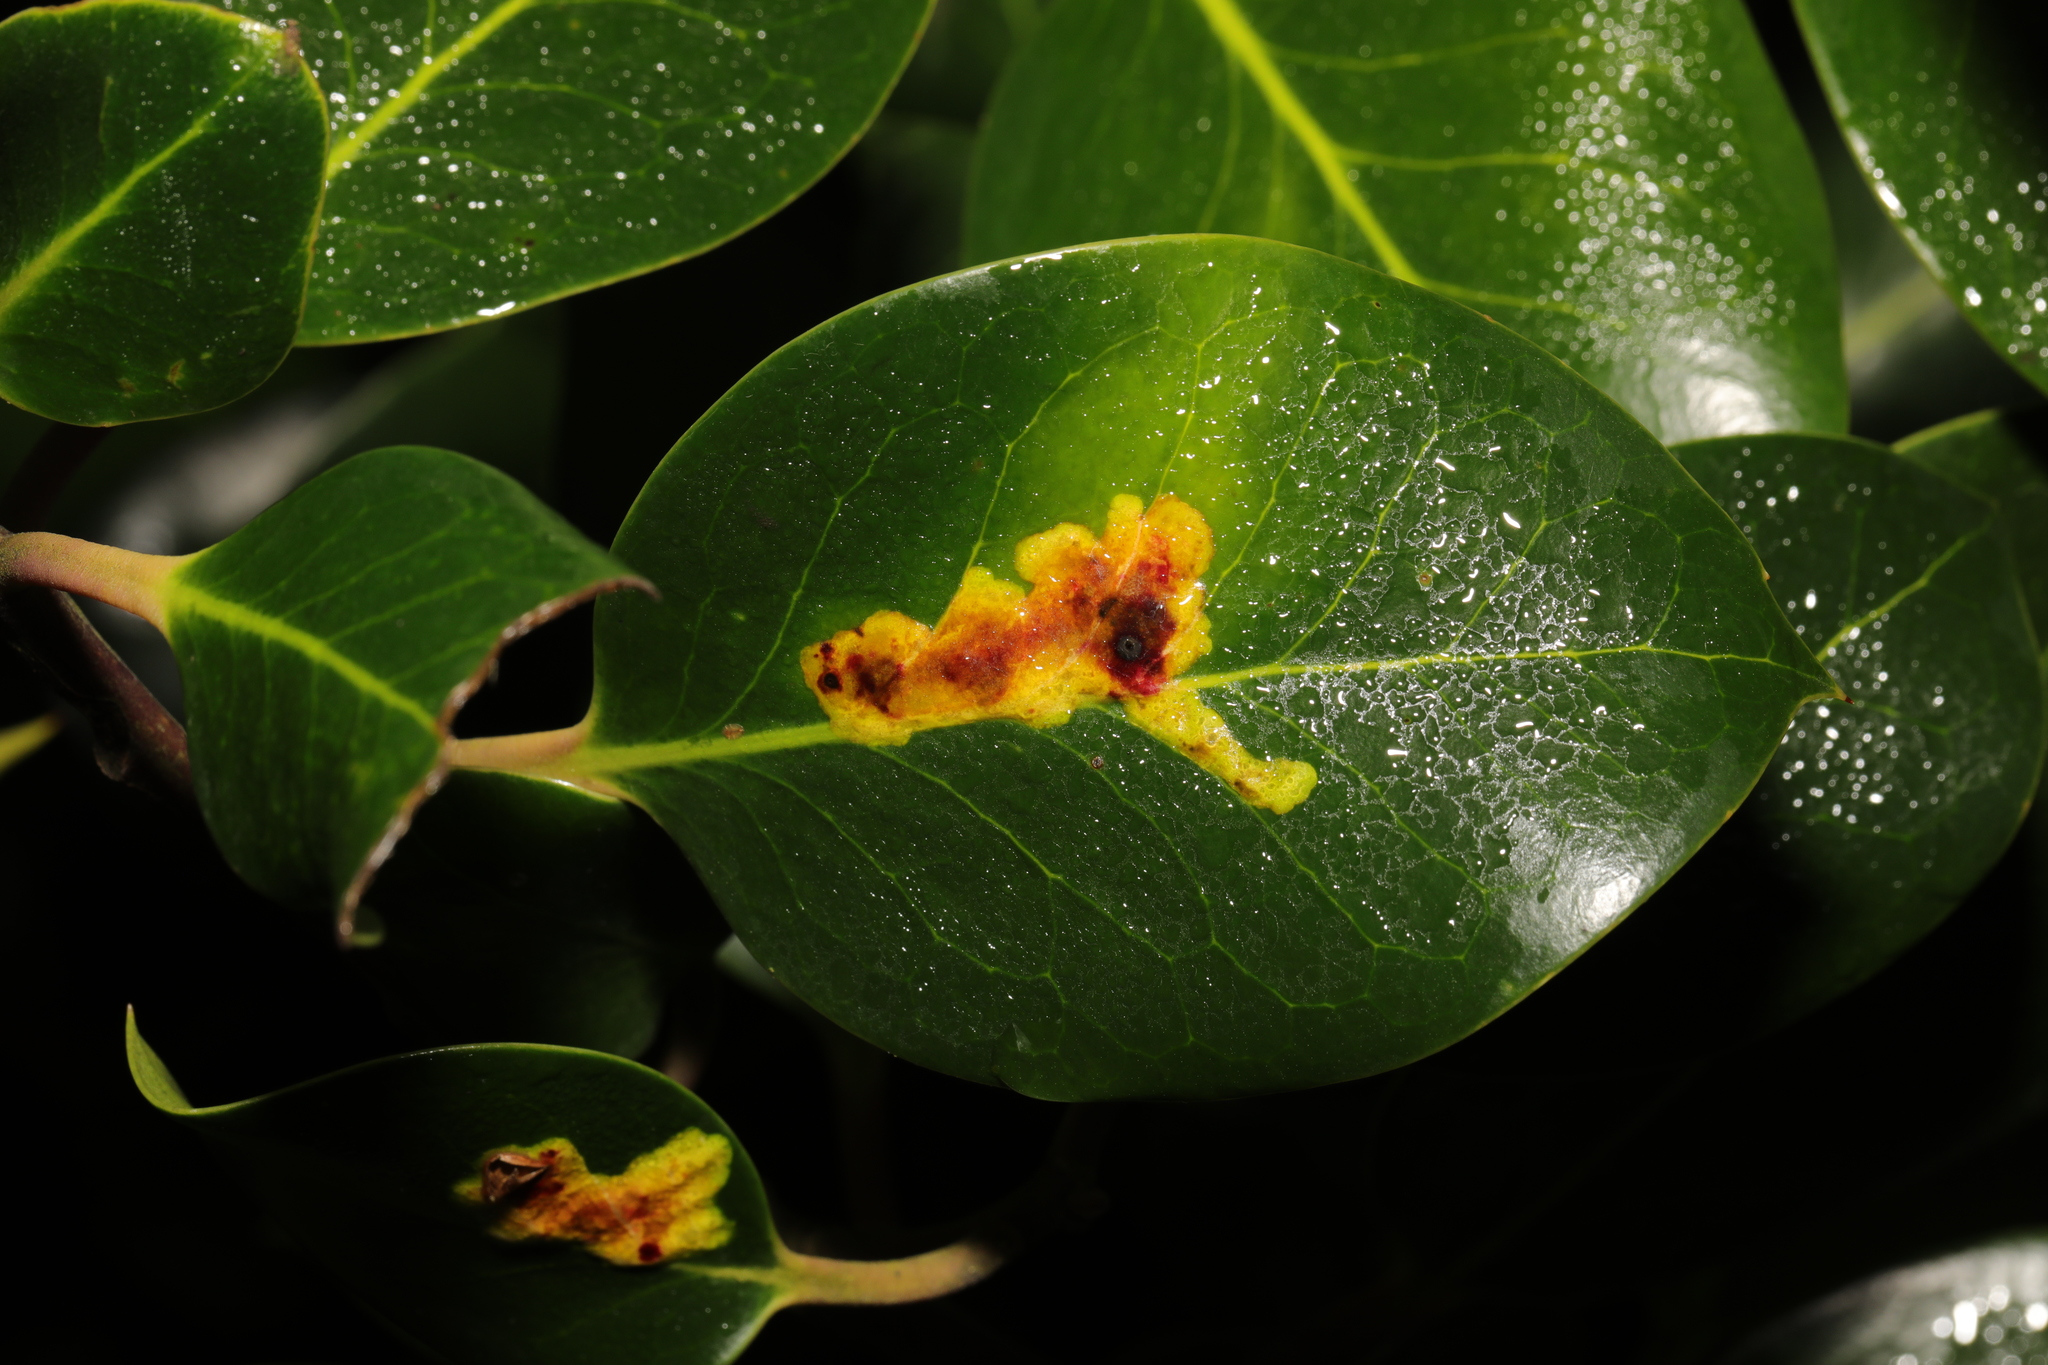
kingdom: Plantae
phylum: Tracheophyta
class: Magnoliopsida
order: Aquifoliales
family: Aquifoliaceae
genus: Ilex
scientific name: Ilex aquifolium
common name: English holly
